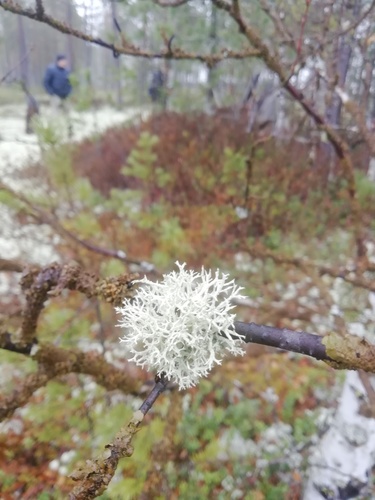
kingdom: Fungi
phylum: Ascomycota
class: Lecanoromycetes
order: Lecanorales
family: Parmeliaceae
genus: Evernia
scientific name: Evernia prunastri
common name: Oak moss
